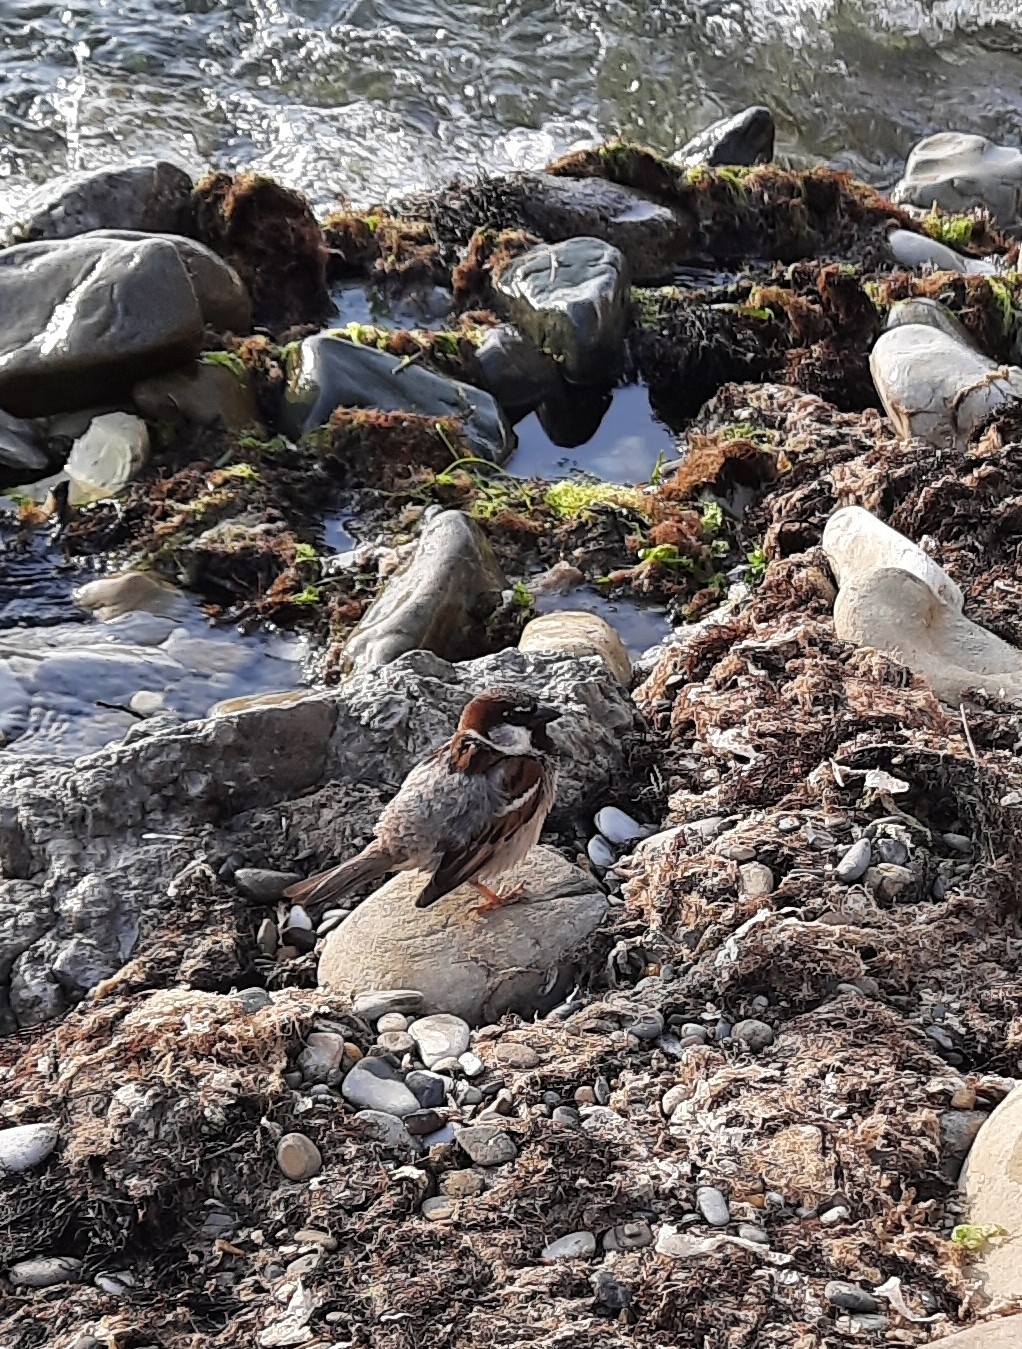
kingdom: Animalia
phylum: Chordata
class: Aves
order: Passeriformes
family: Passeridae
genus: Passer
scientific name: Passer domesticus
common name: House sparrow
